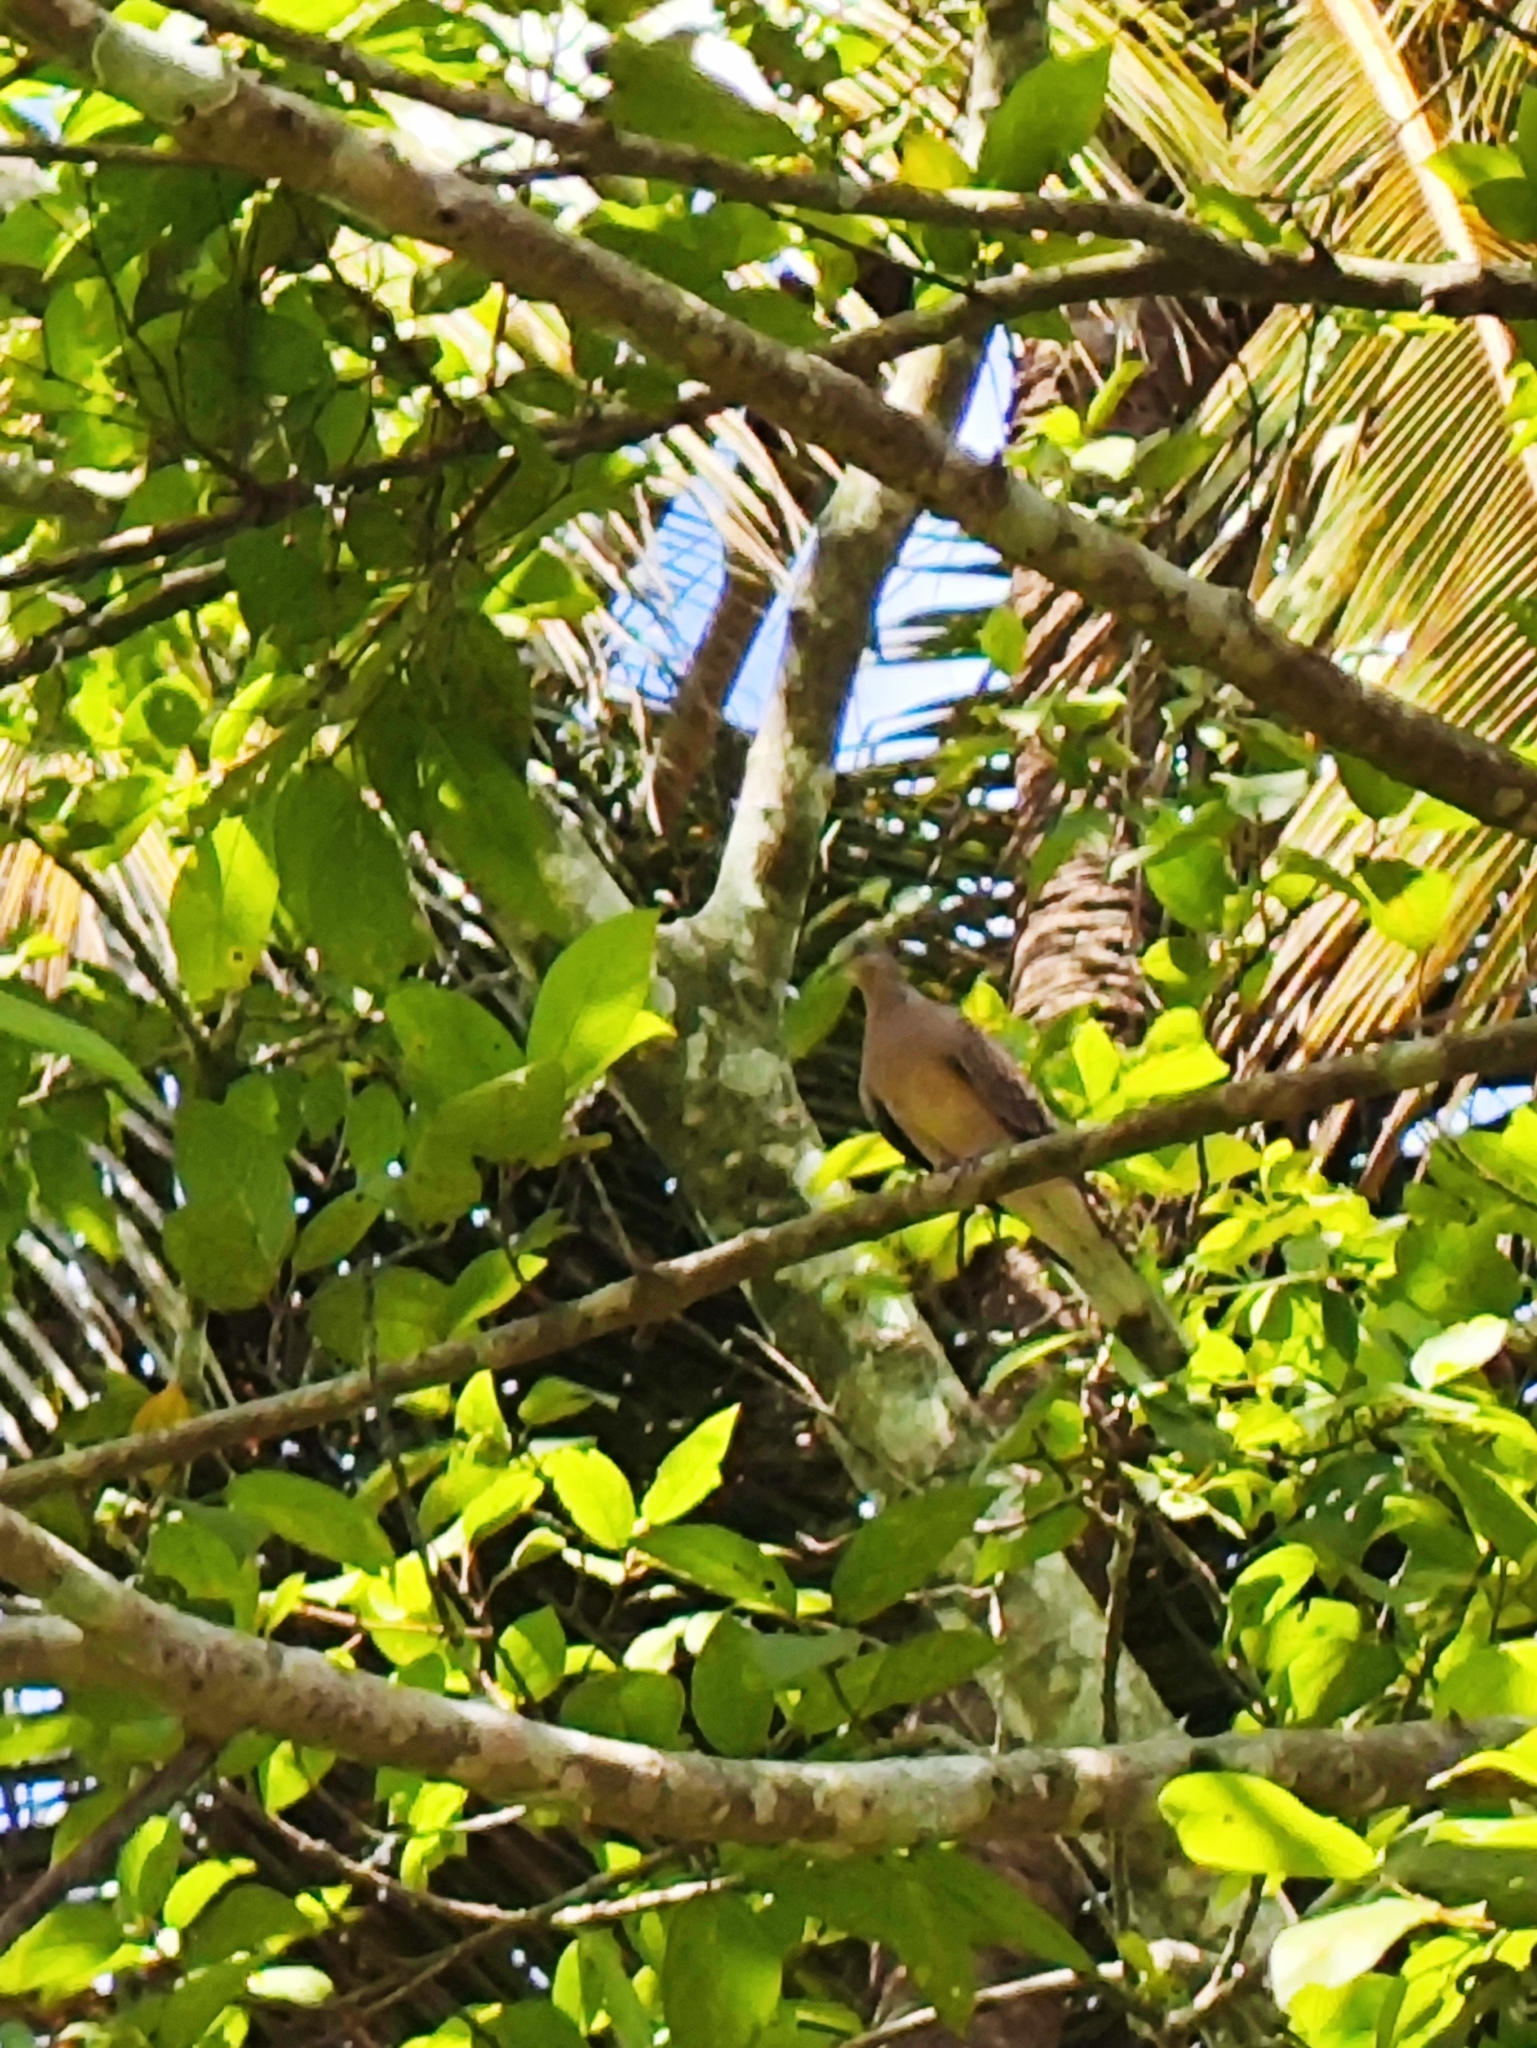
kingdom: Animalia
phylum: Chordata
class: Aves
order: Columbiformes
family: Columbidae
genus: Spilopelia
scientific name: Spilopelia chinensis
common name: Spotted dove
